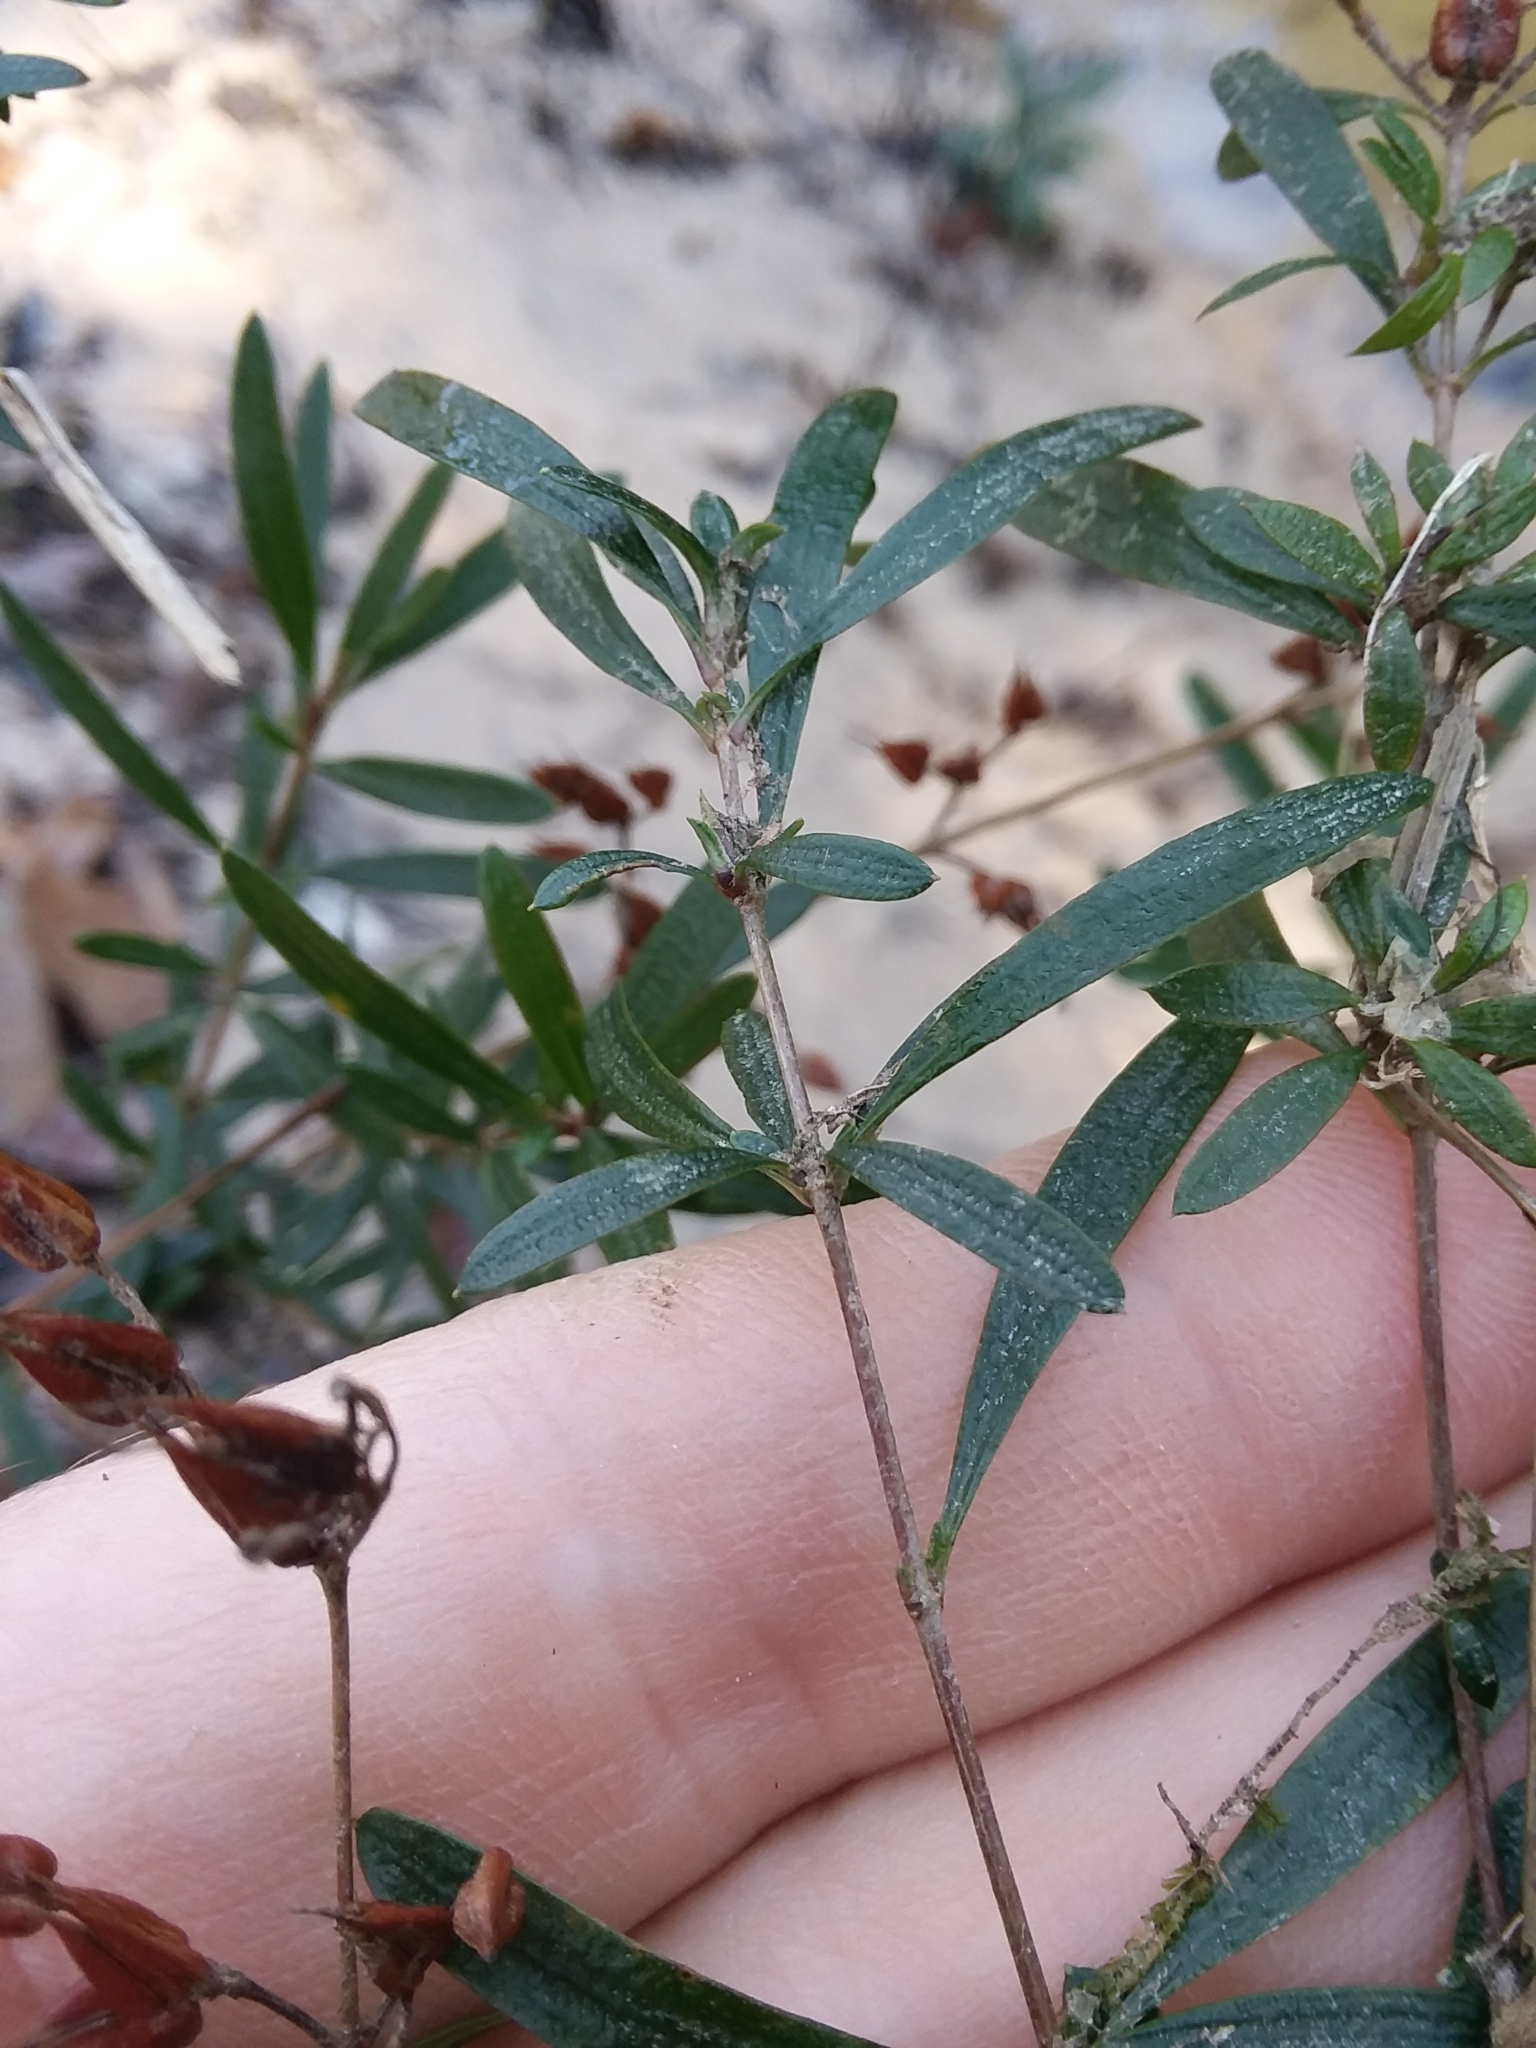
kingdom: Plantae
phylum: Tracheophyta
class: Magnoliopsida
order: Malpighiales
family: Hypericaceae
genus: Hypericum
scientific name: Hypericum galioides
